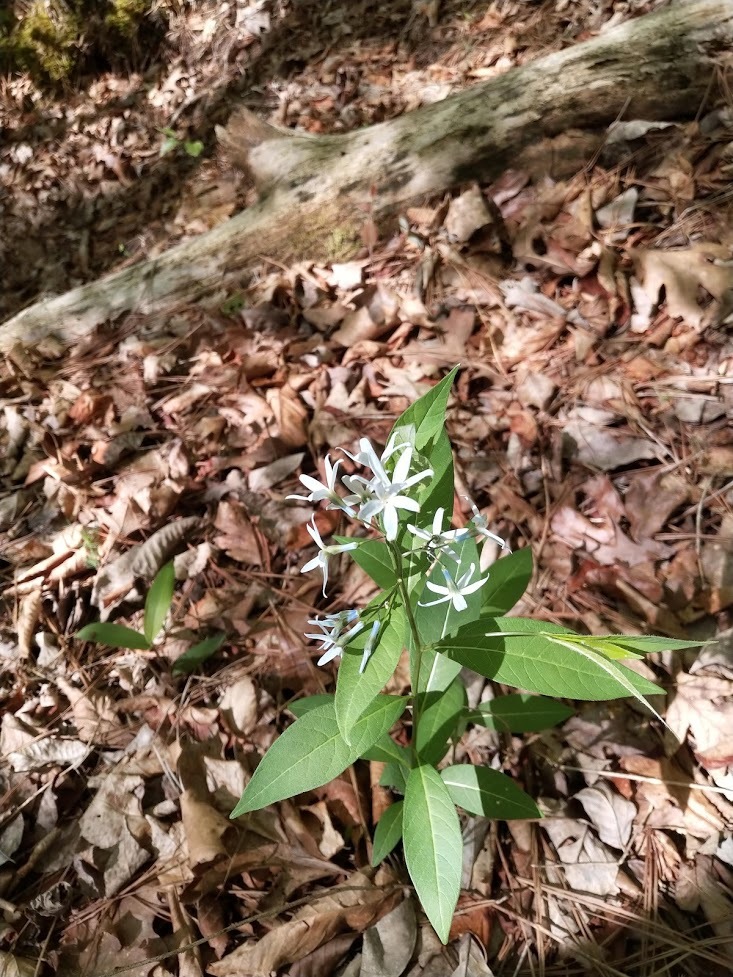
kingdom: Plantae
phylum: Tracheophyta
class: Magnoliopsida
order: Gentianales
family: Apocynaceae
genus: Amsonia
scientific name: Amsonia tabernaemontana
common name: Texas-star
